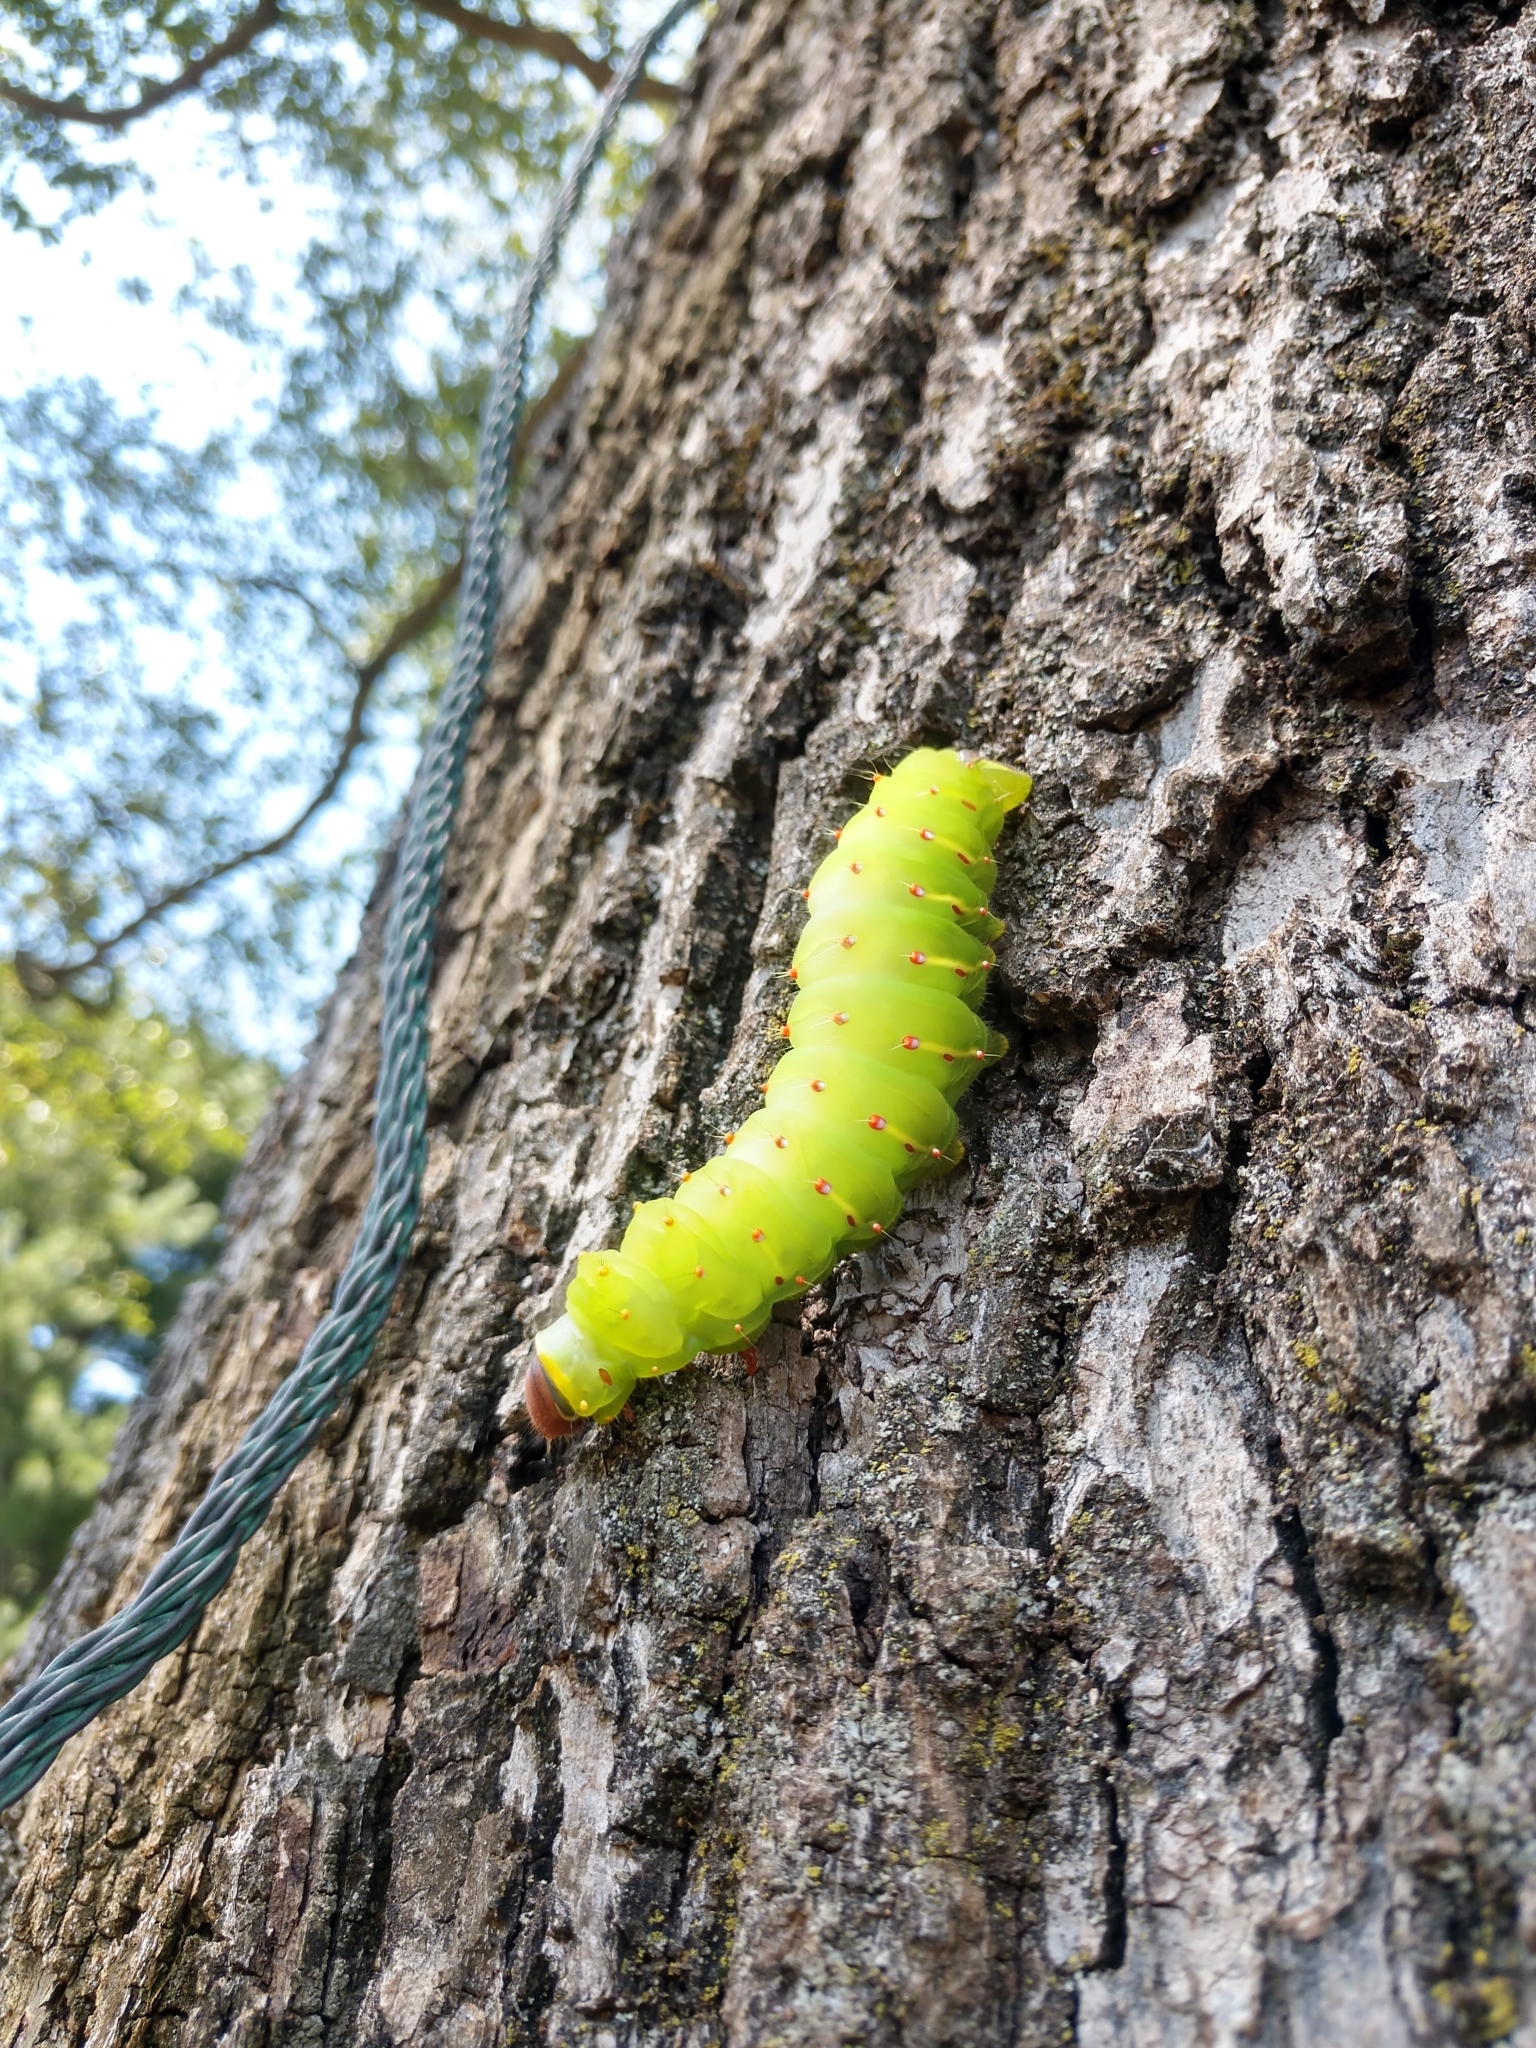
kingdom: Animalia
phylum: Arthropoda
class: Insecta
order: Lepidoptera
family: Saturniidae
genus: Antheraea
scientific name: Antheraea polyphemus
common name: Polyphemus moth
